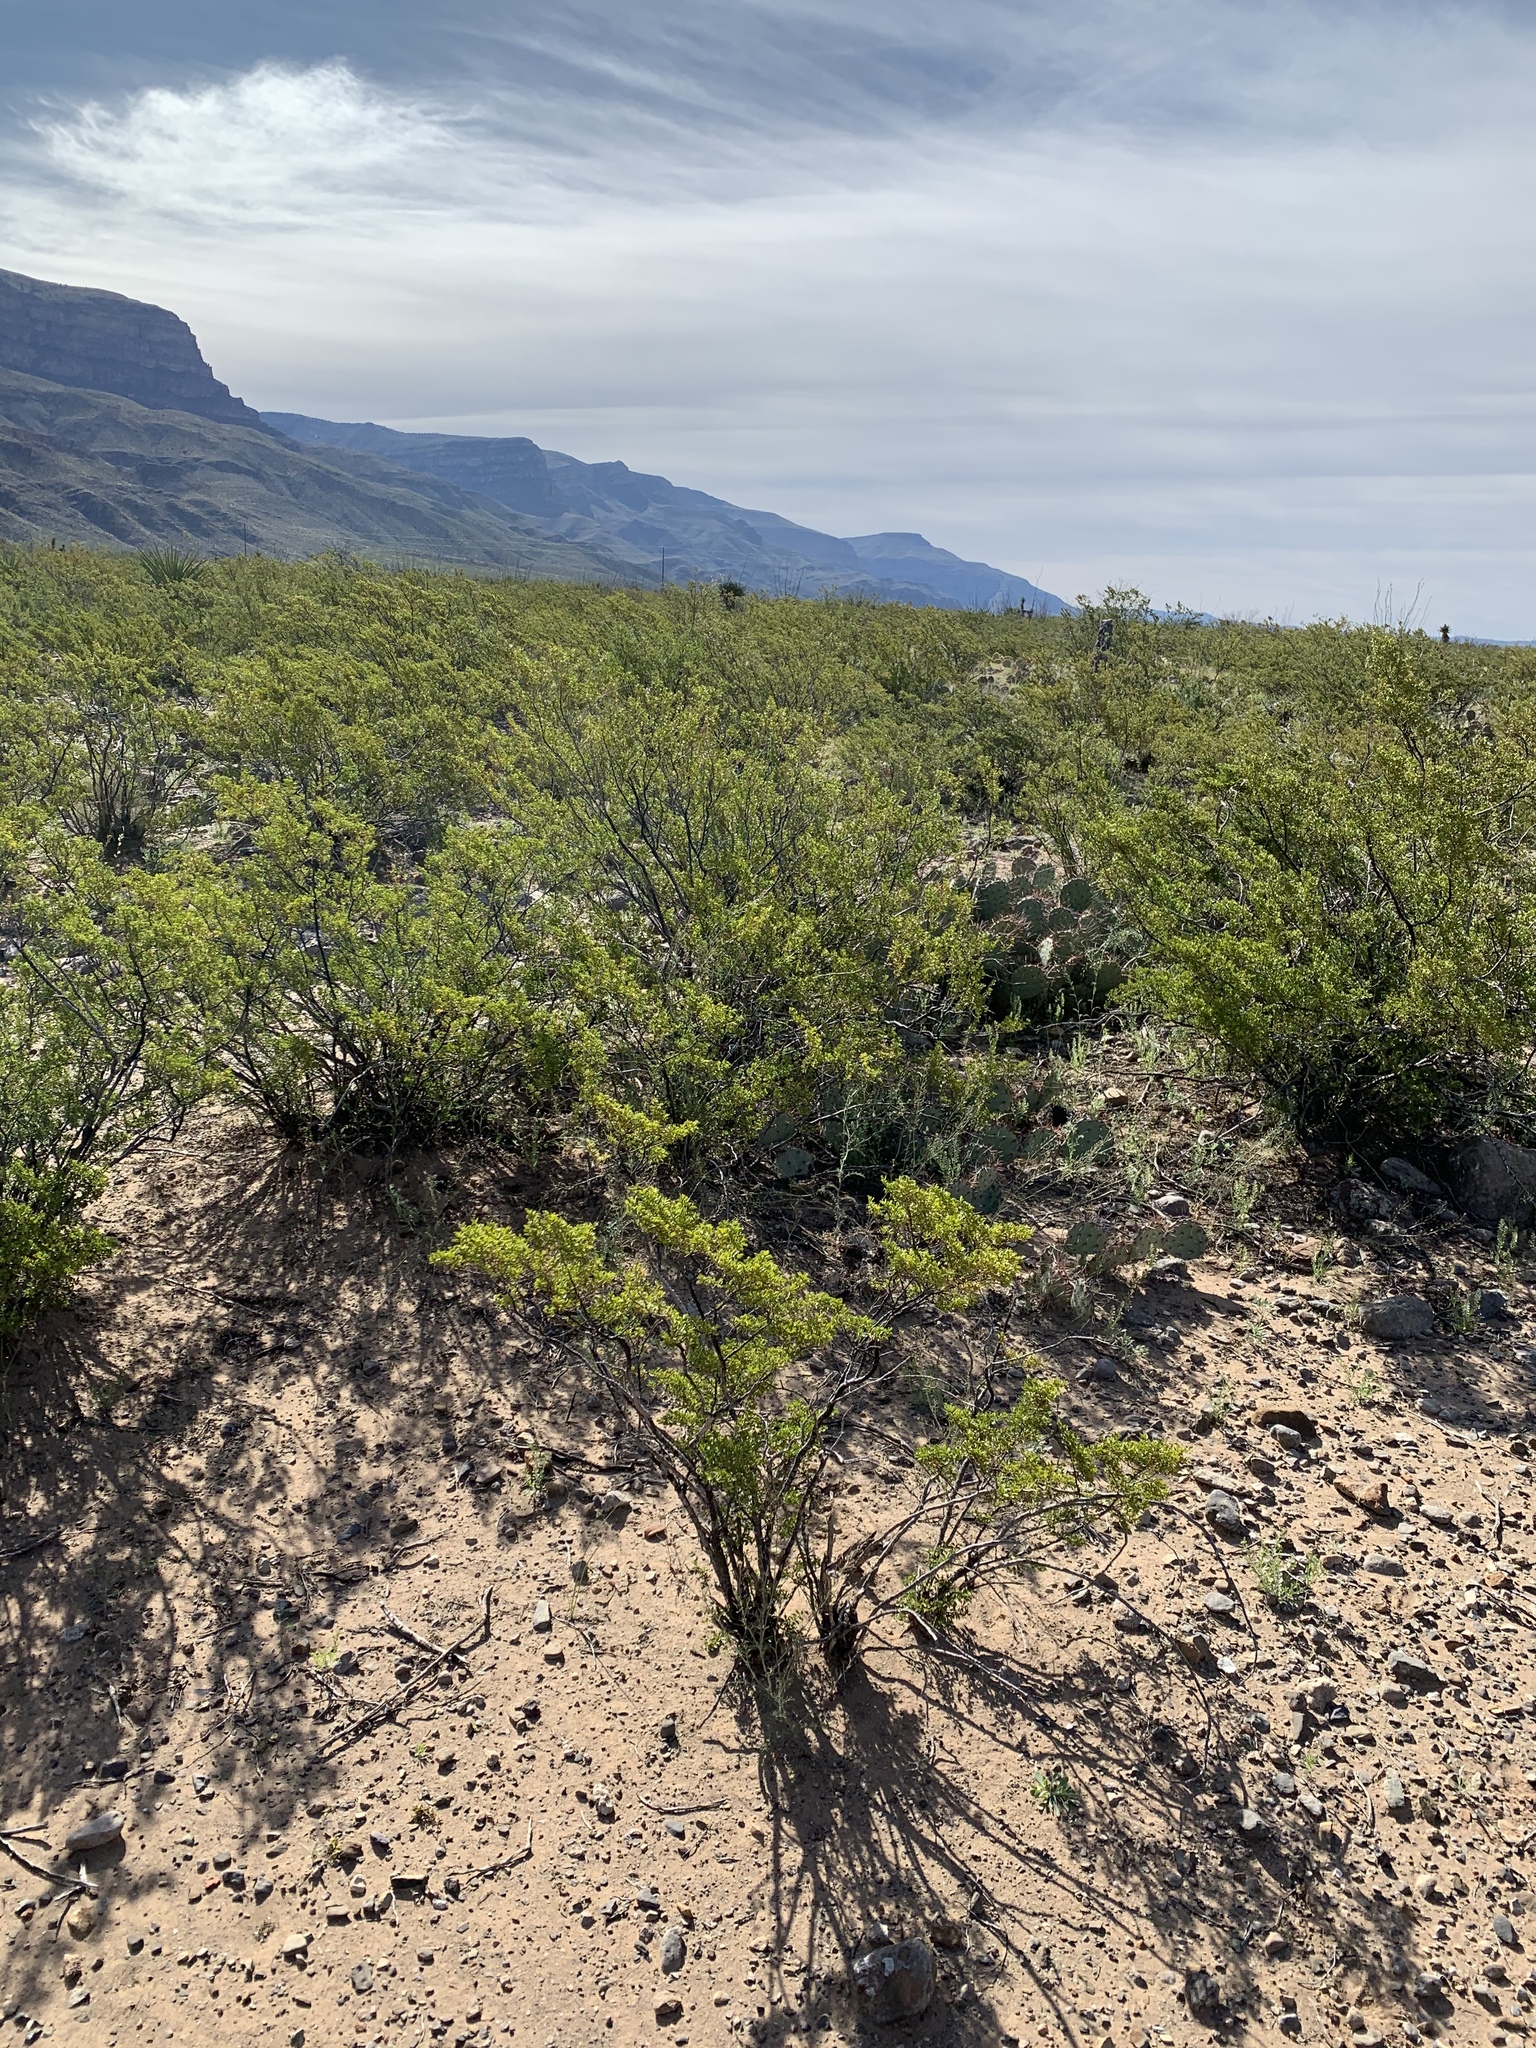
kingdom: Plantae
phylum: Tracheophyta
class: Magnoliopsida
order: Zygophyllales
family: Zygophyllaceae
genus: Larrea
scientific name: Larrea tridentata
